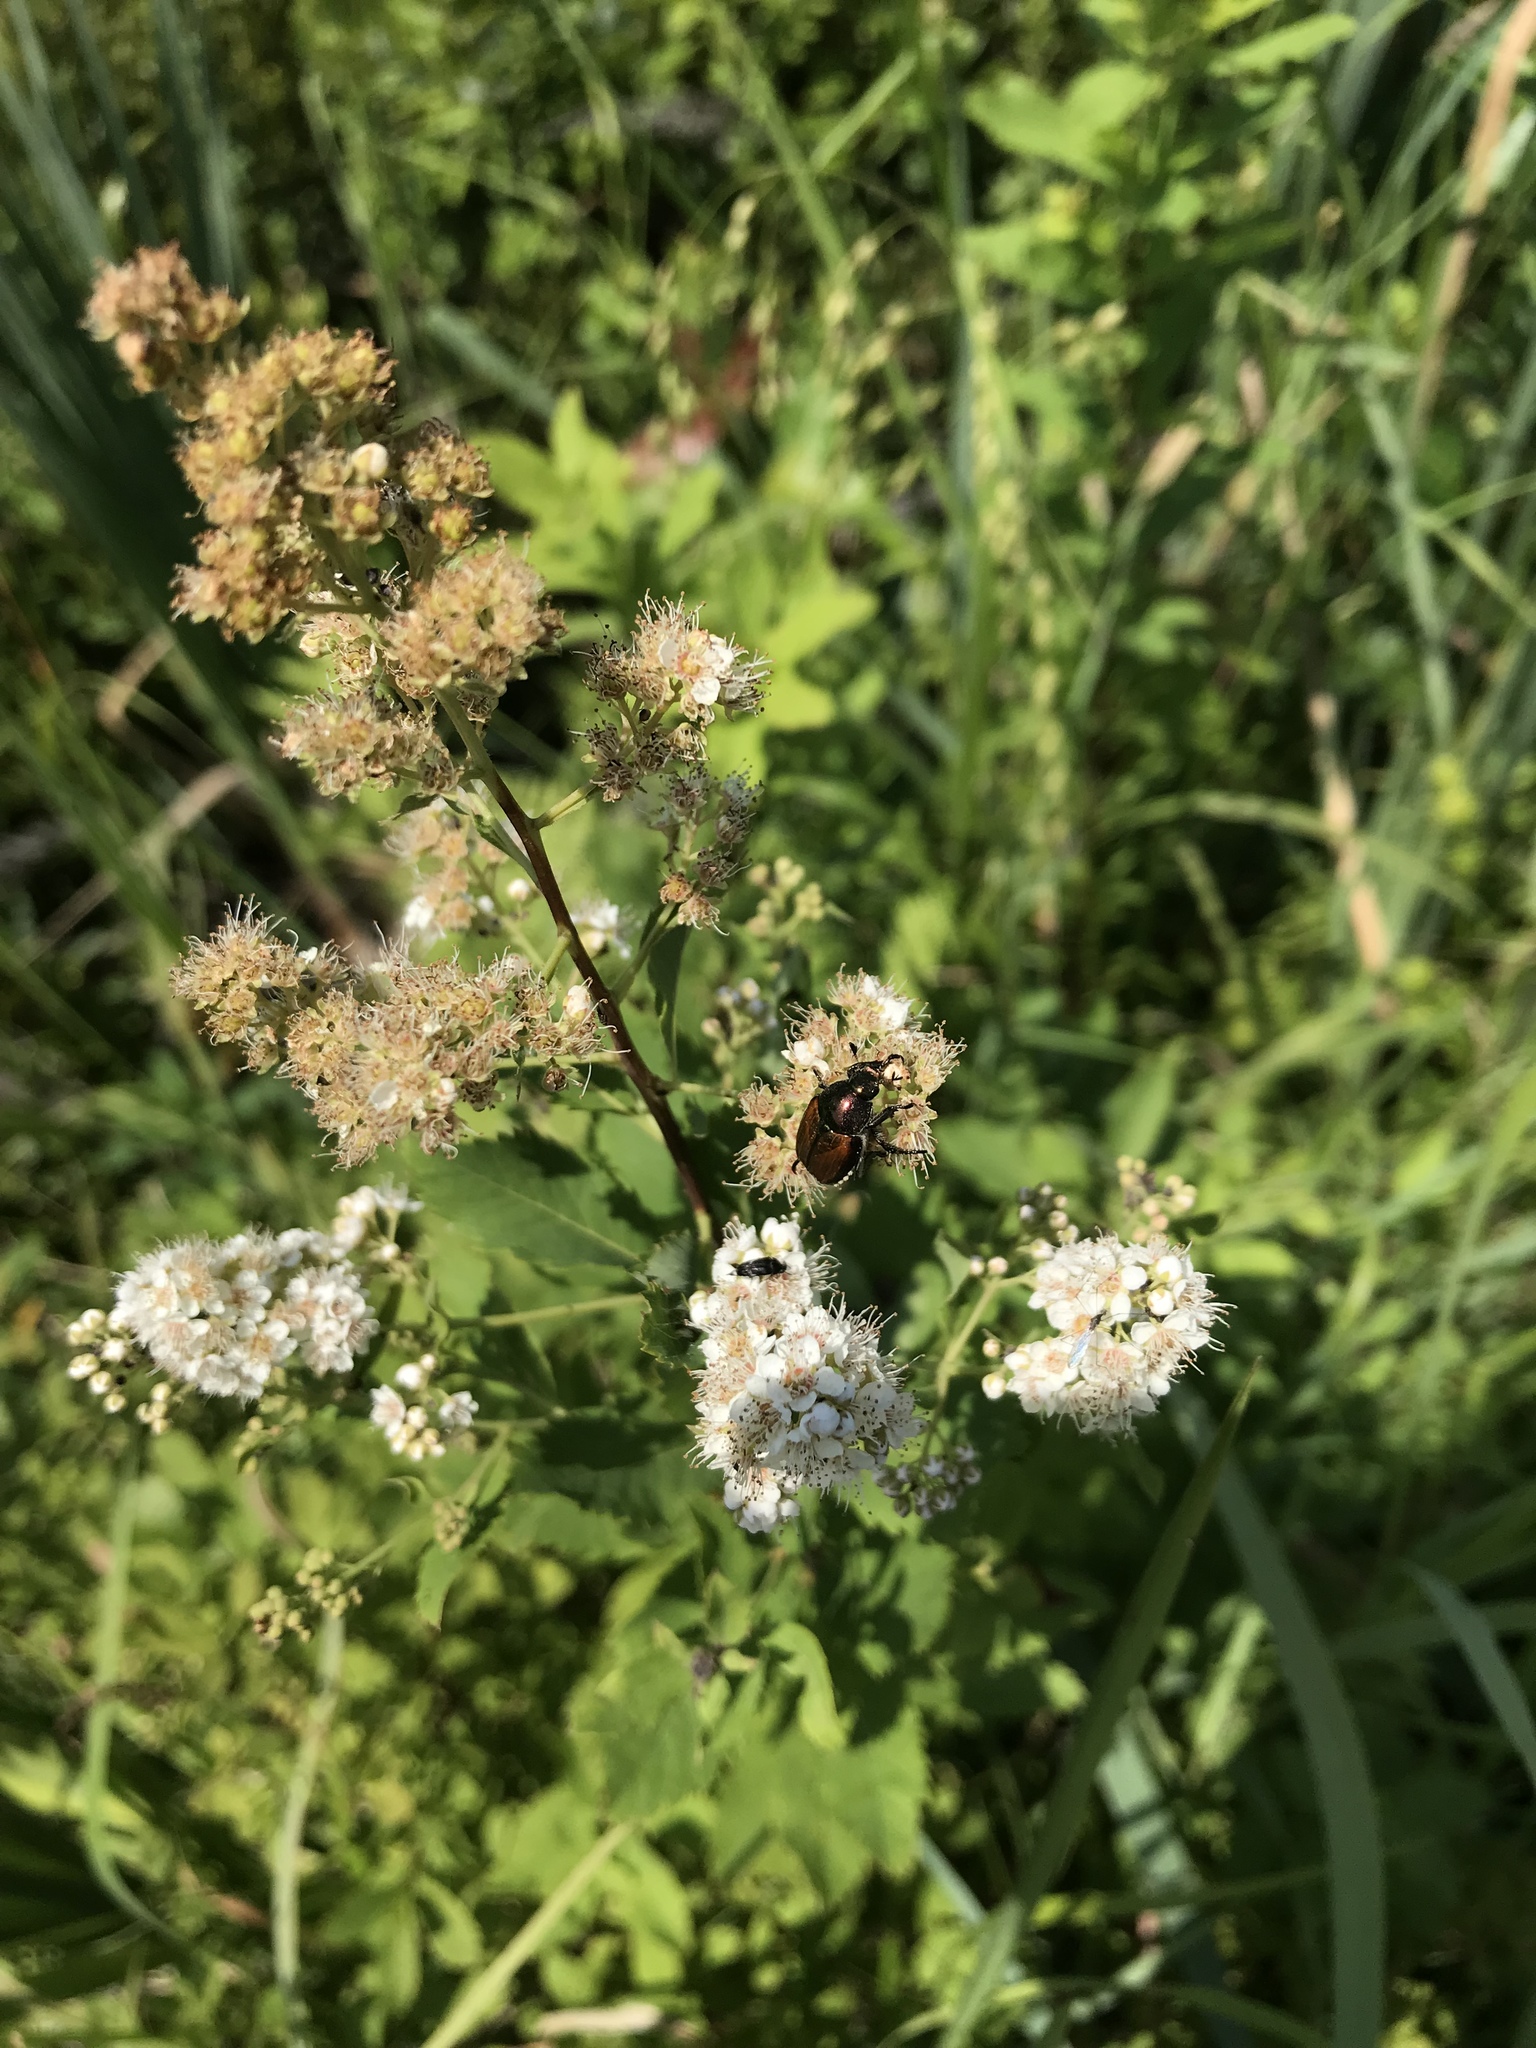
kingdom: Animalia
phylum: Arthropoda
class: Insecta
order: Coleoptera
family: Scarabaeidae
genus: Popillia
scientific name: Popillia japonica
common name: Japanese beetle
